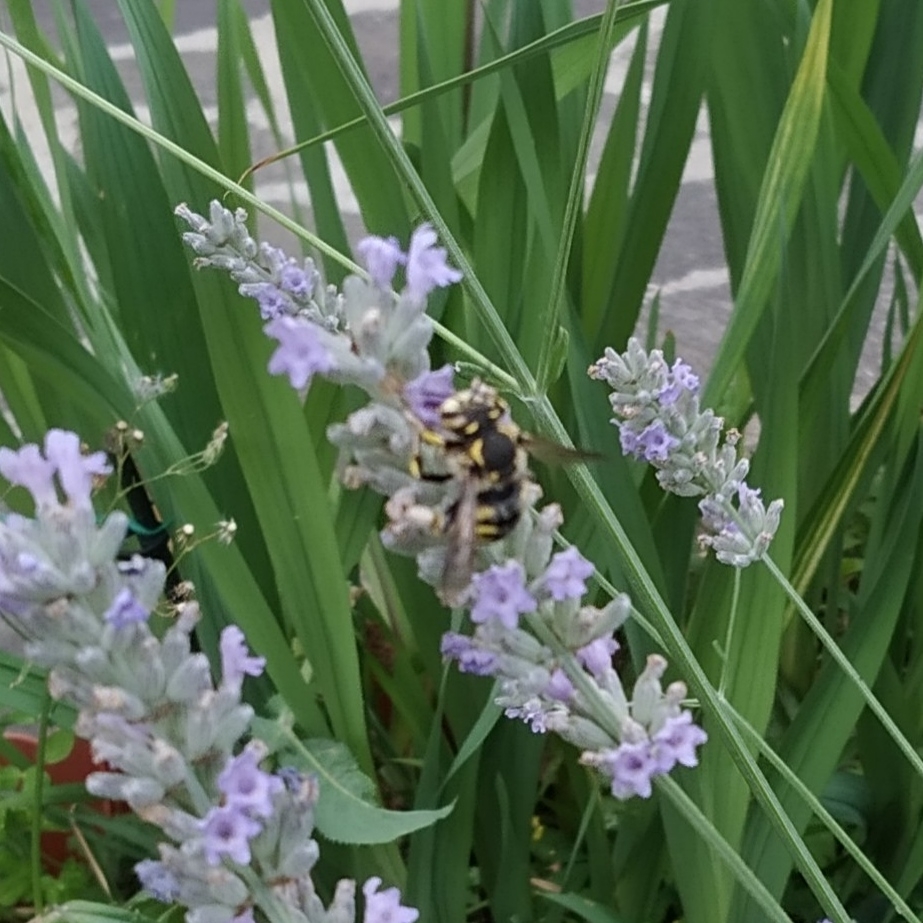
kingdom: Animalia
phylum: Arthropoda
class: Insecta
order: Hymenoptera
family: Megachilidae
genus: Anthidium
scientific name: Anthidium florentinum
